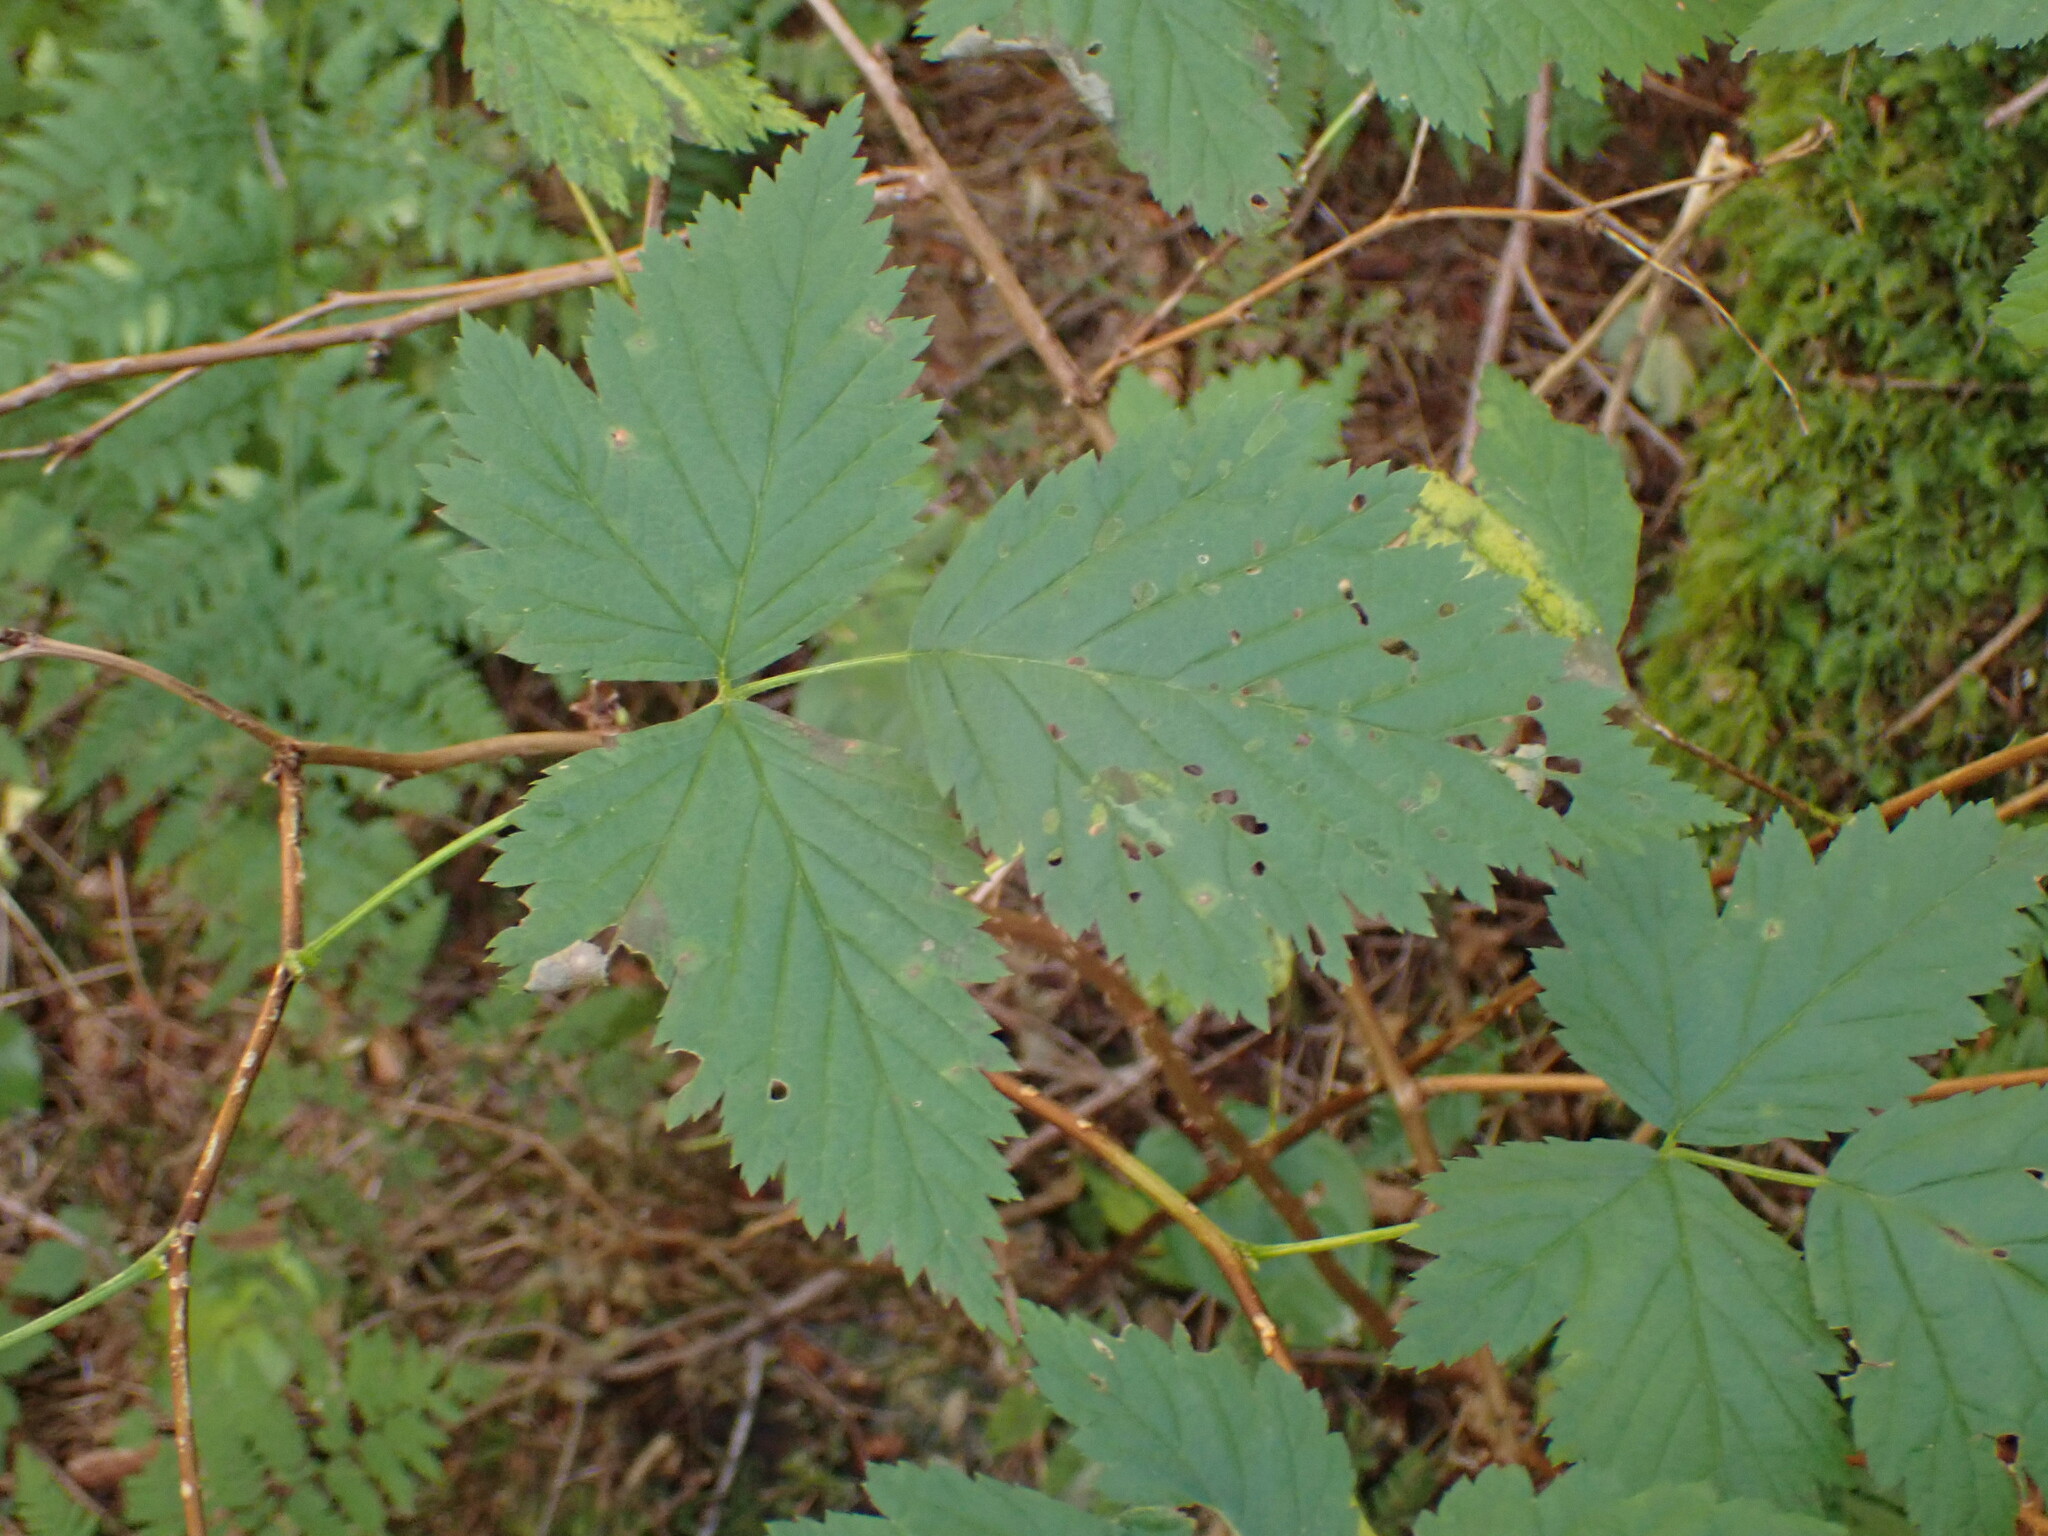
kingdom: Plantae
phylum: Tracheophyta
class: Magnoliopsida
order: Rosales
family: Rosaceae
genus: Rubus
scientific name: Rubus spectabilis
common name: Salmonberry
